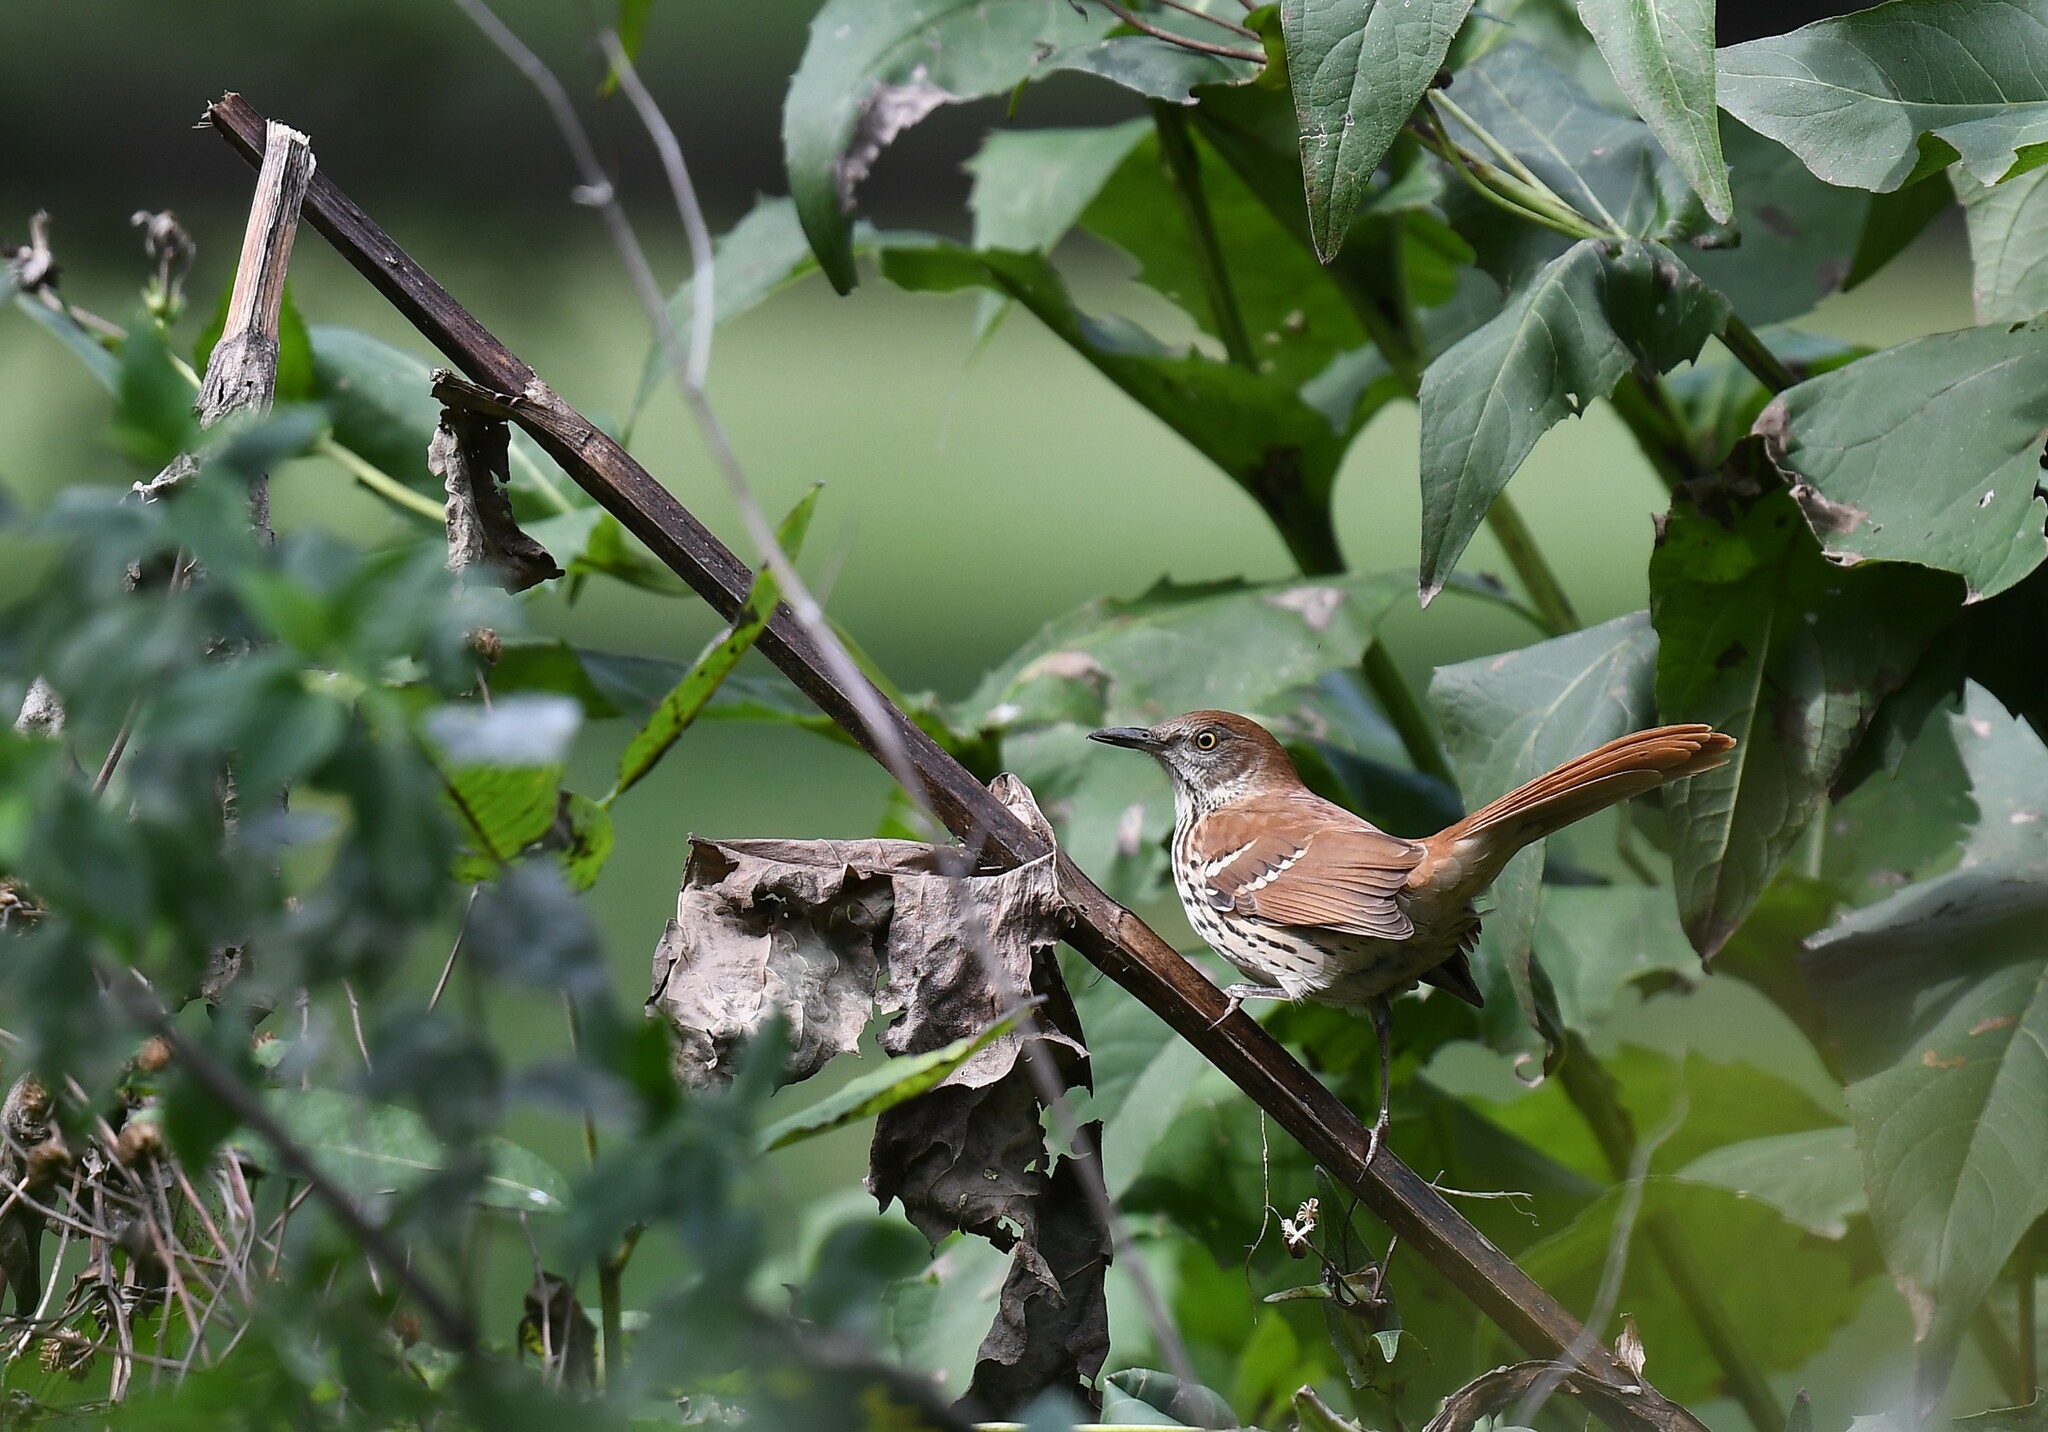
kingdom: Animalia
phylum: Chordata
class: Aves
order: Passeriformes
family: Mimidae
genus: Toxostoma
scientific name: Toxostoma rufum
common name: Brown thrasher
